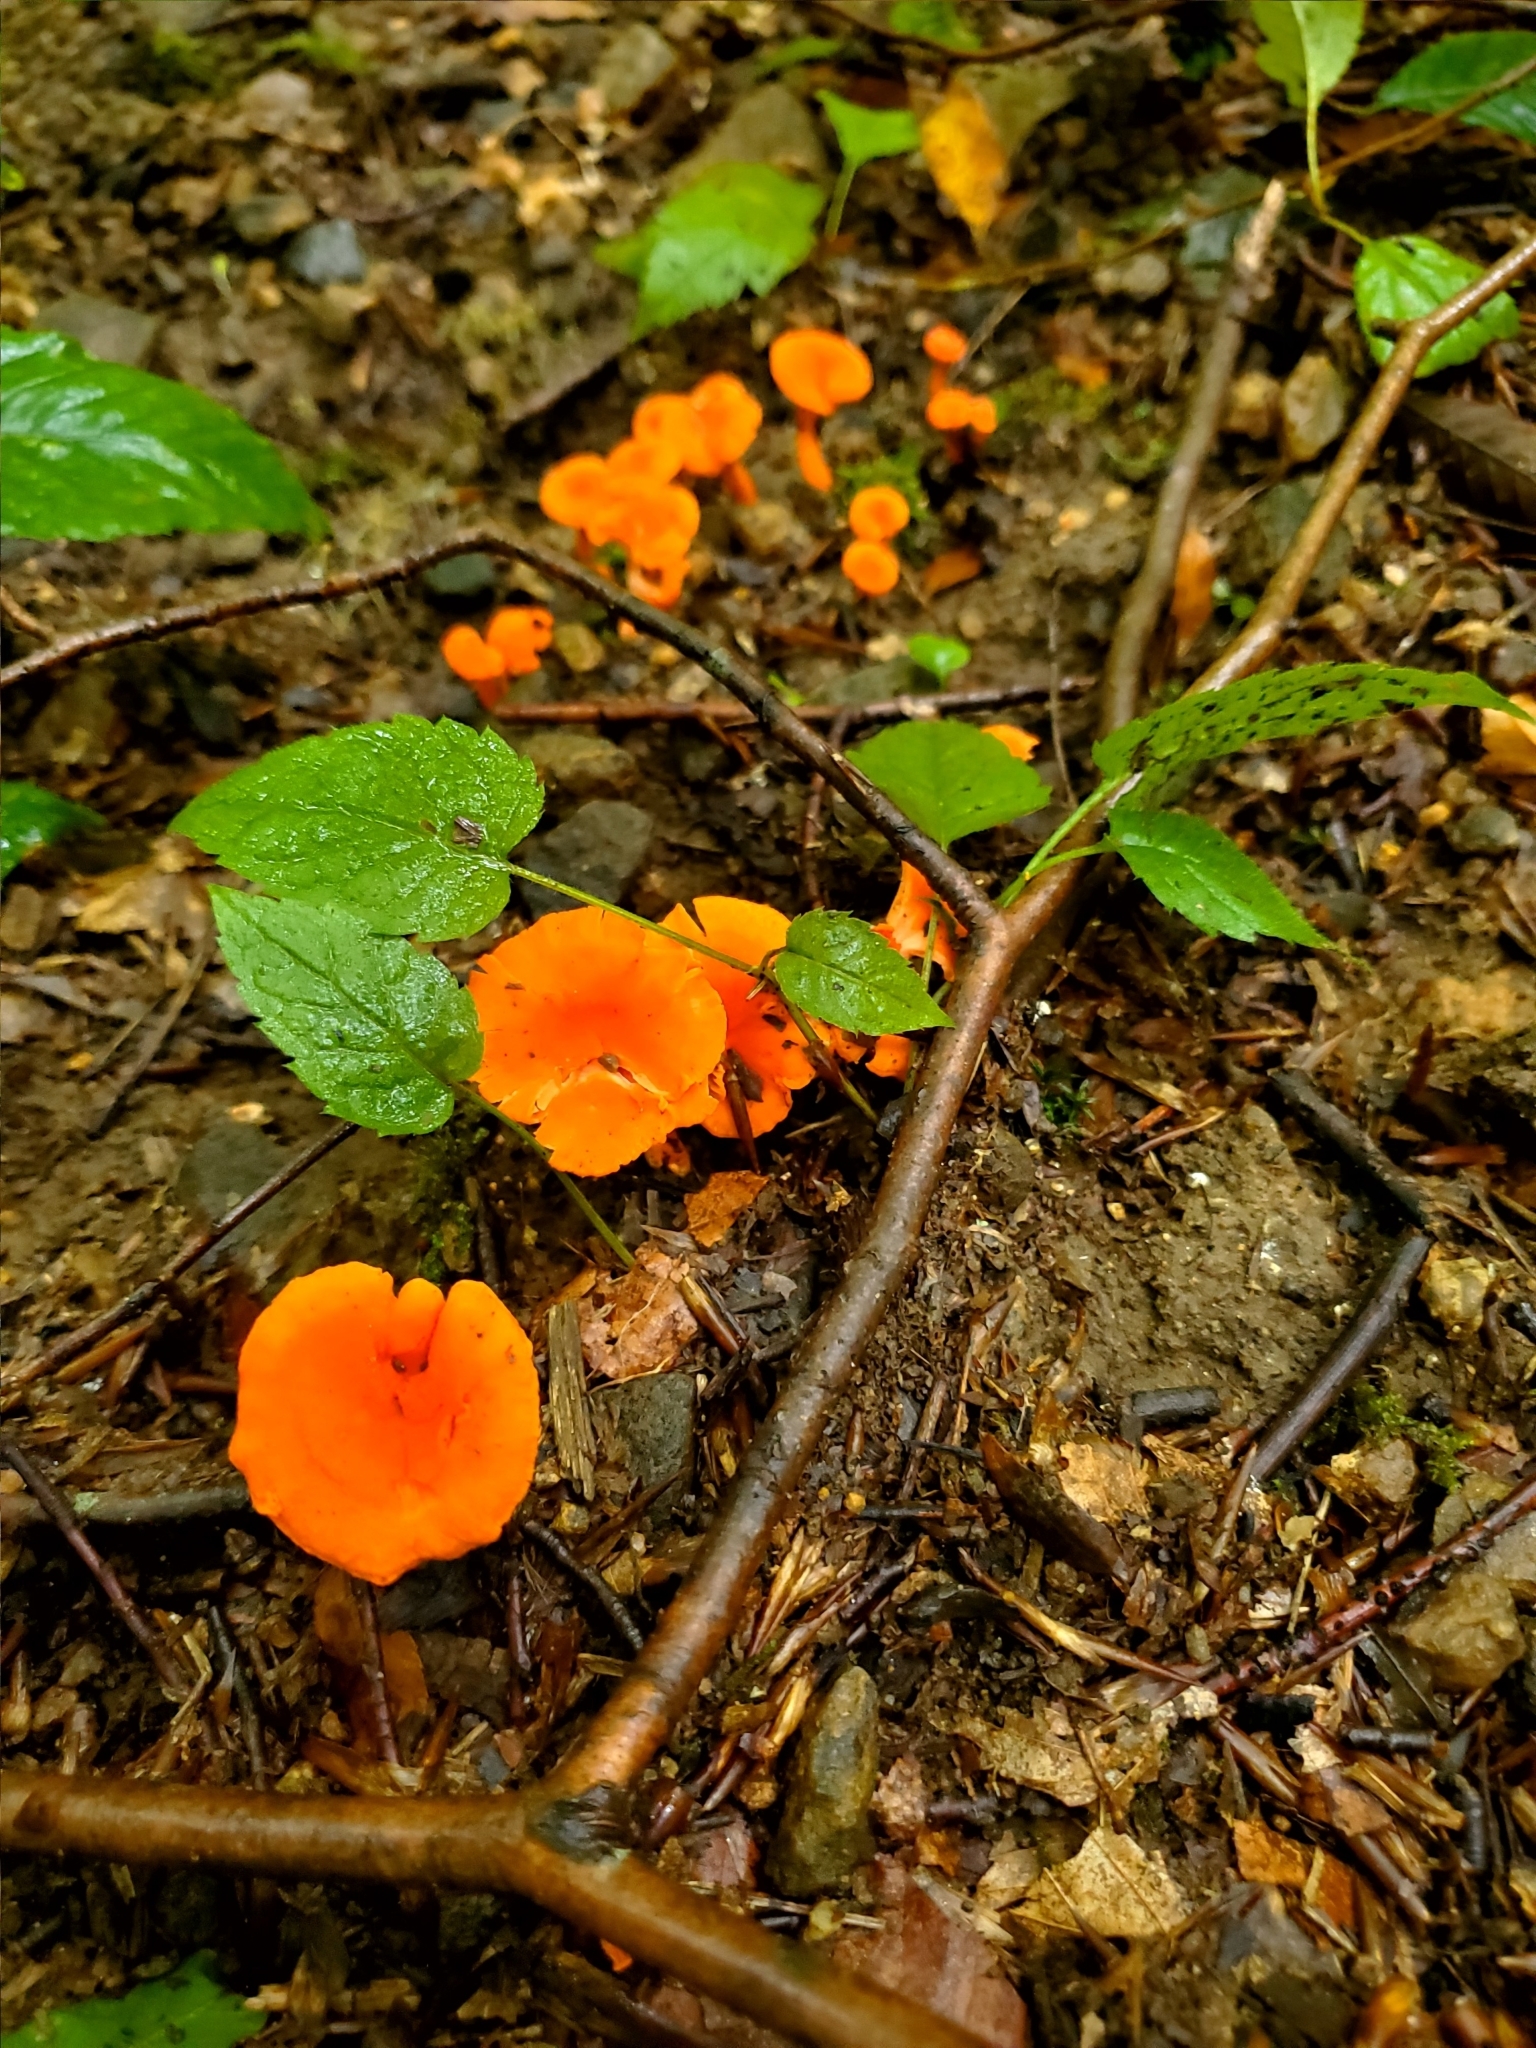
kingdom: Fungi
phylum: Basidiomycota
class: Agaricomycetes
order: Cantharellales
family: Hydnaceae
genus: Cantharellus
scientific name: Cantharellus cinnabarinus
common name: Cinnabar chanterelle
